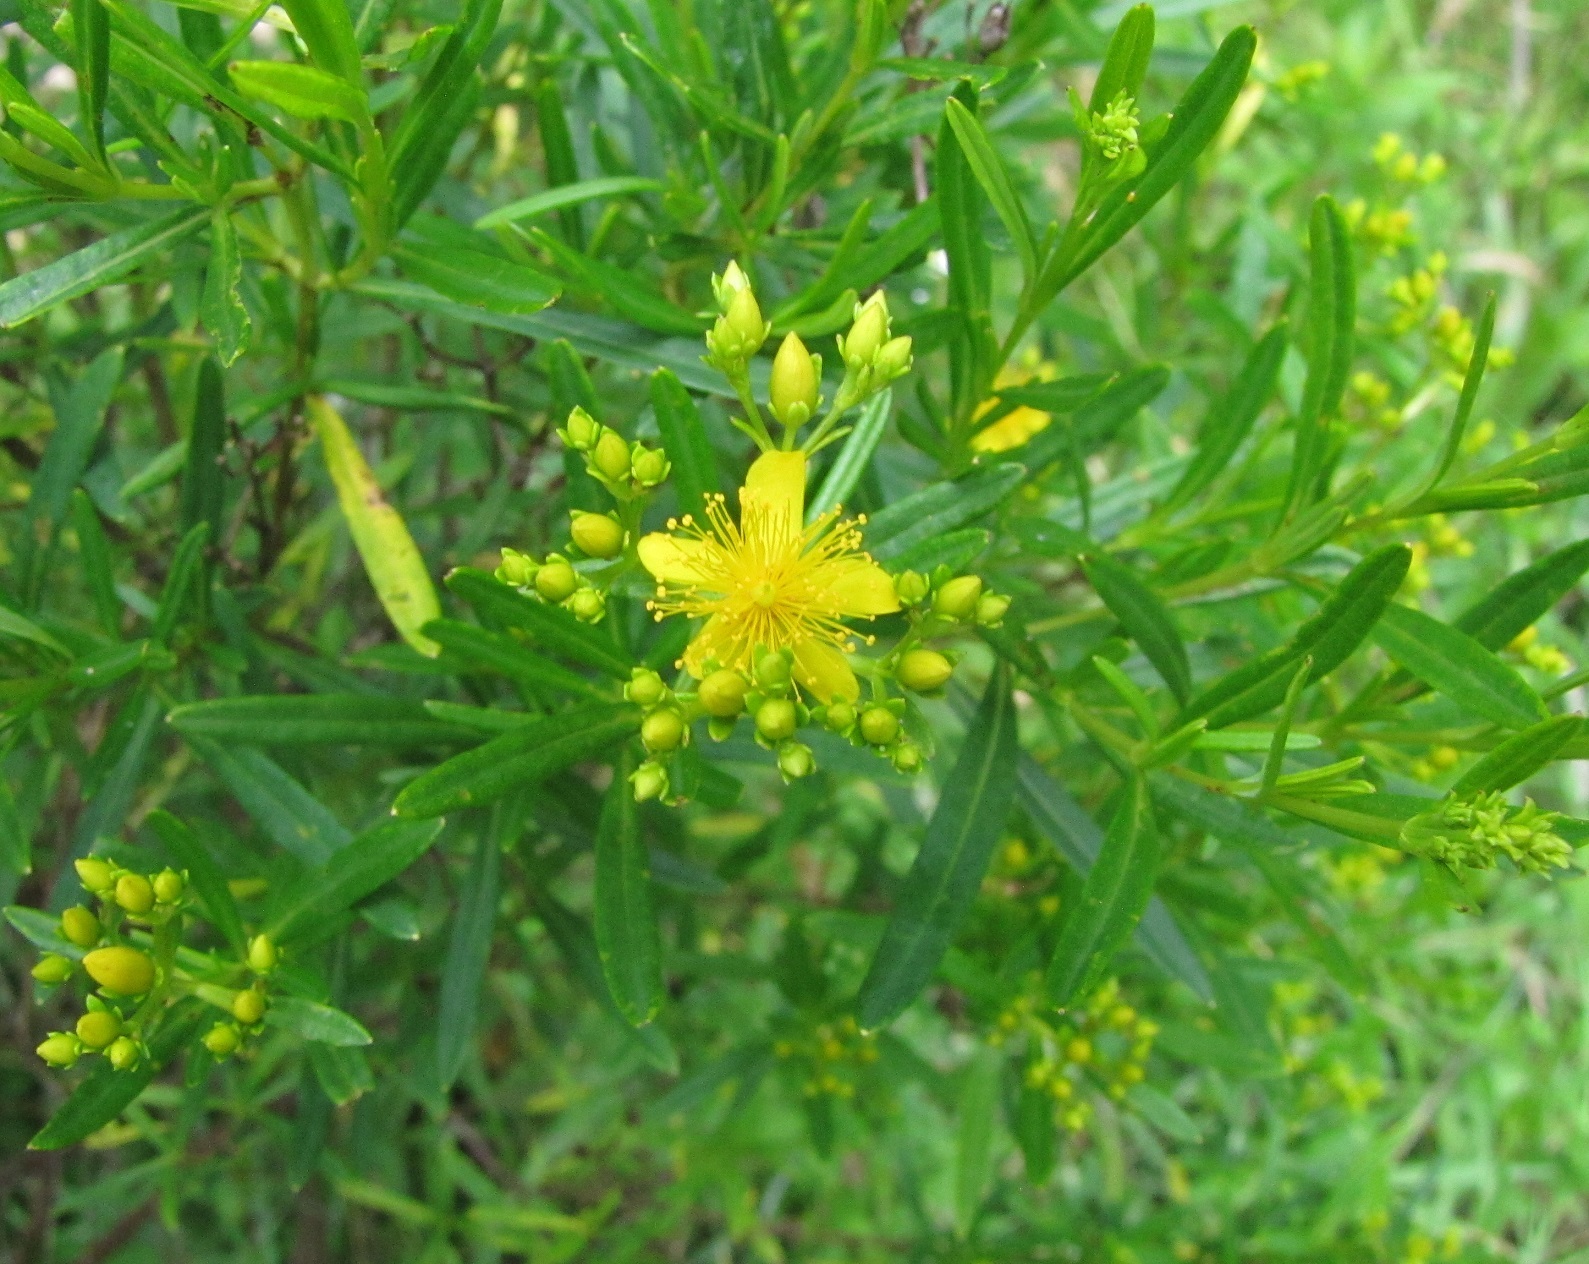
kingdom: Plantae
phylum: Tracheophyta
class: Magnoliopsida
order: Malpighiales
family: Hypericaceae
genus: Hypericum
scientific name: Hypericum prolificum
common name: Shrubby st. john's-wort
